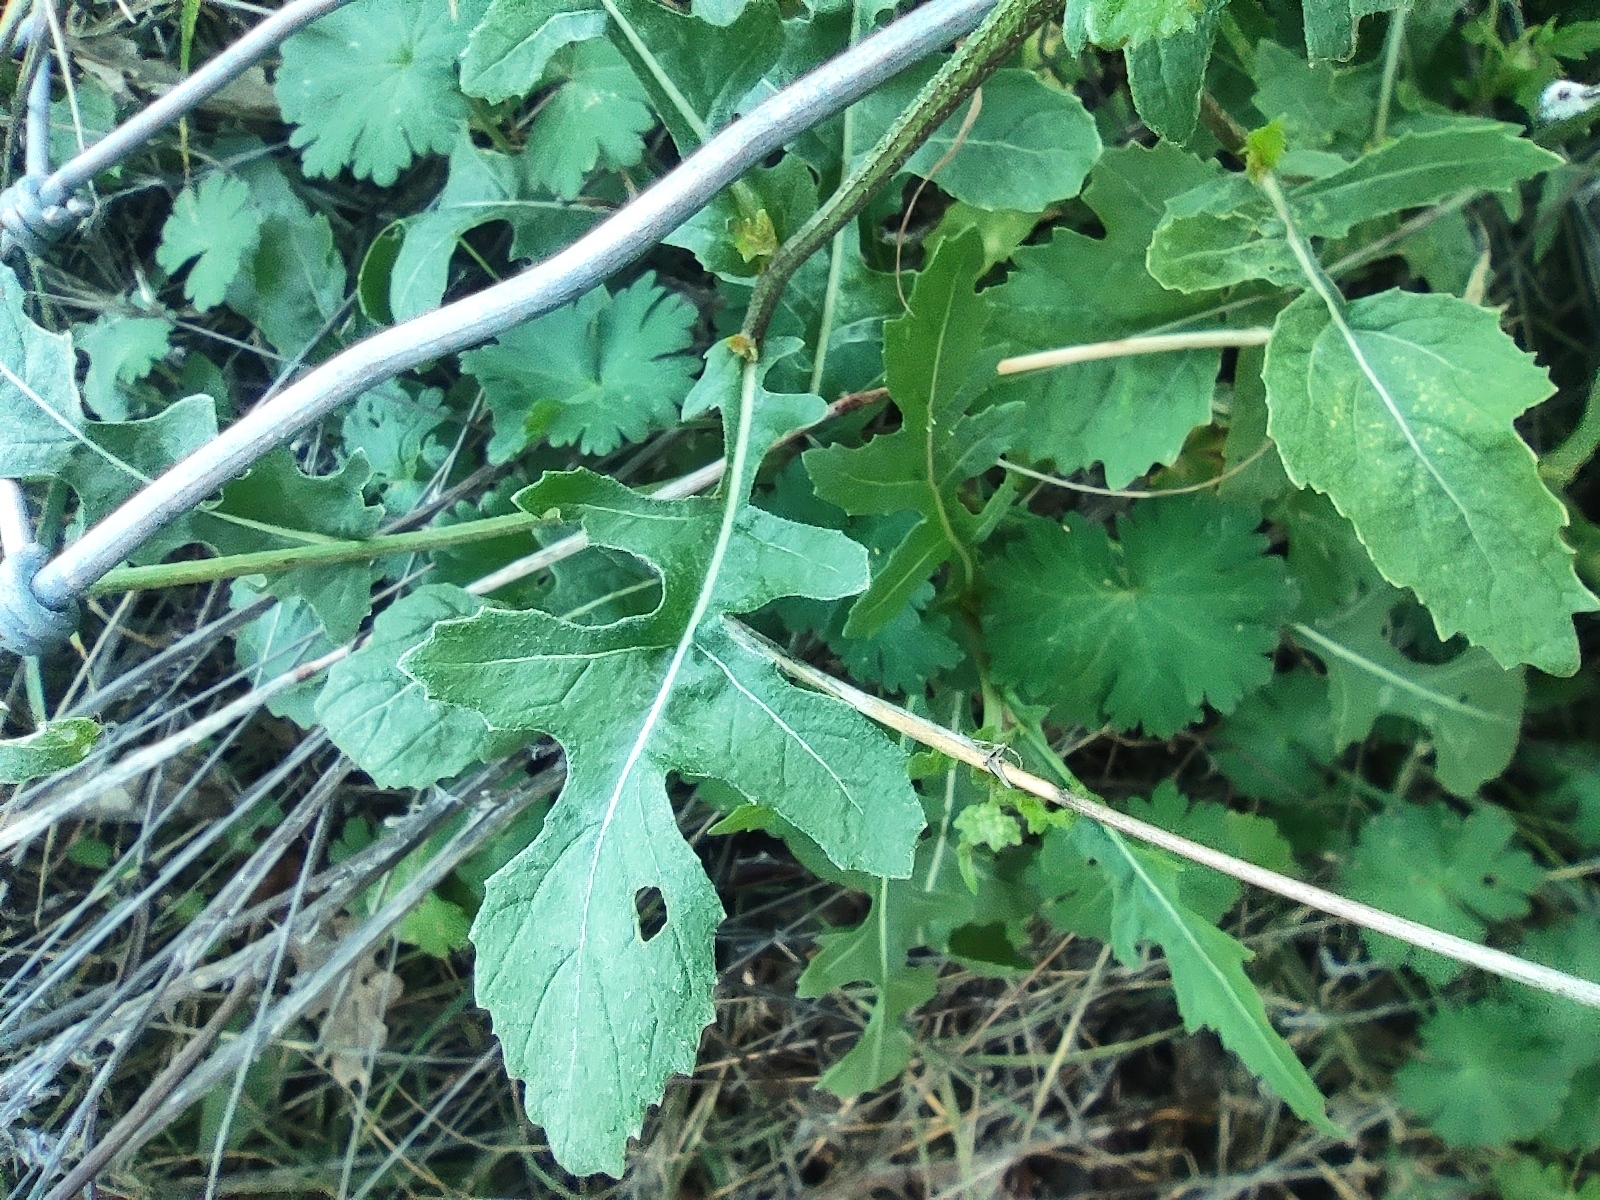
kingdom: Plantae
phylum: Tracheophyta
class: Magnoliopsida
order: Brassicales
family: Brassicaceae
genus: Diplotaxis
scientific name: Diplotaxis erucoides
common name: White rocket
